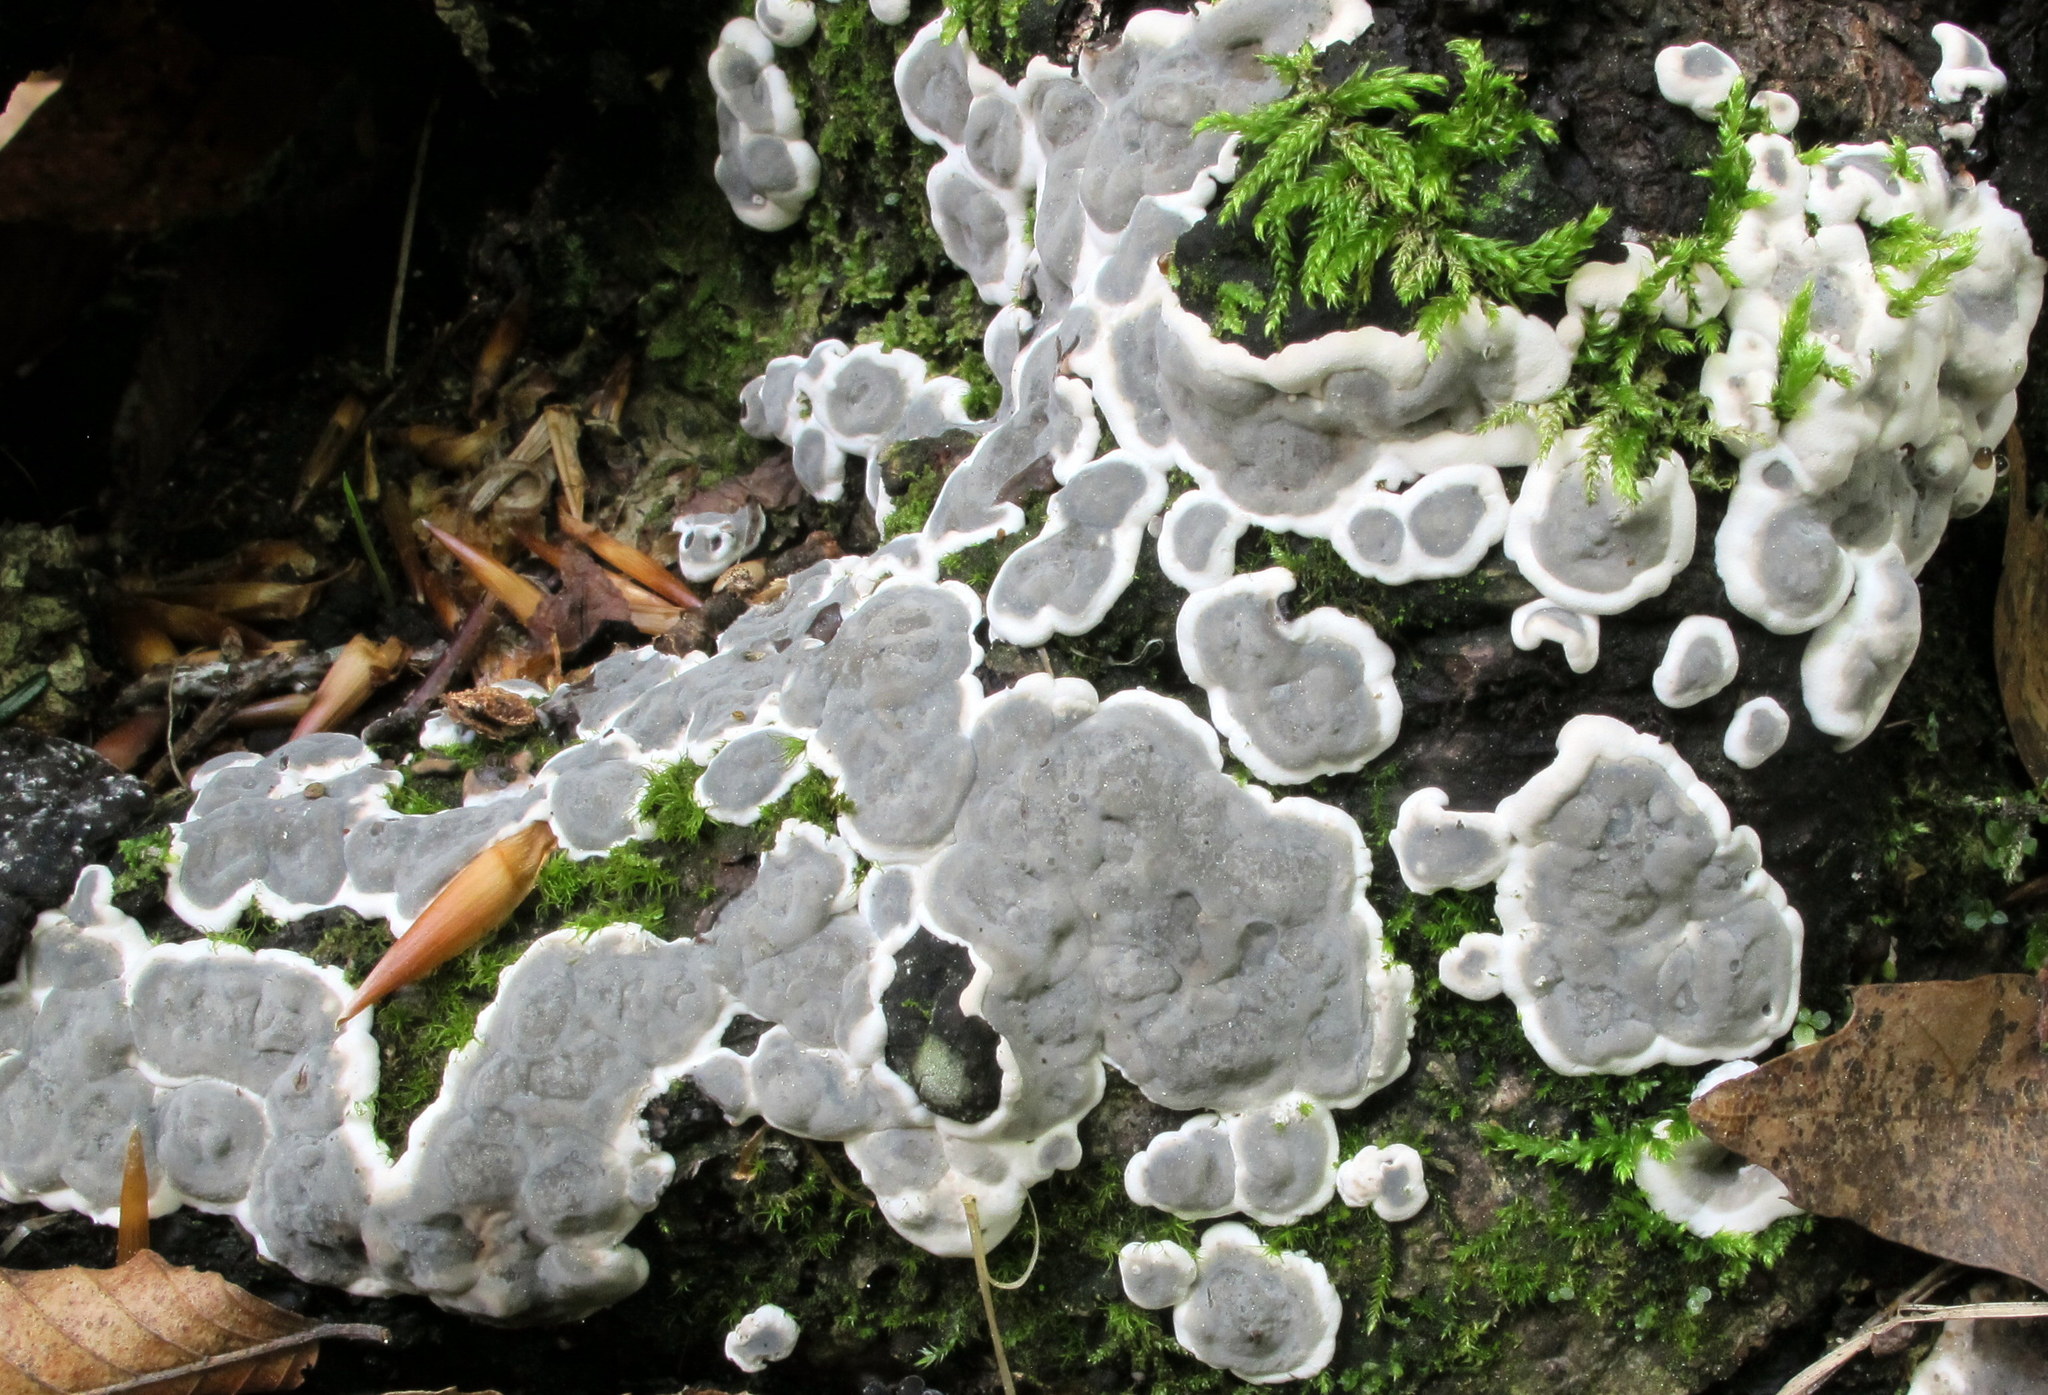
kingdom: Fungi
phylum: Ascomycota
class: Sordariomycetes
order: Xylariales
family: Xylariaceae
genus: Kretzschmaria
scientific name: Kretzschmaria deusta
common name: Brittle cinder
